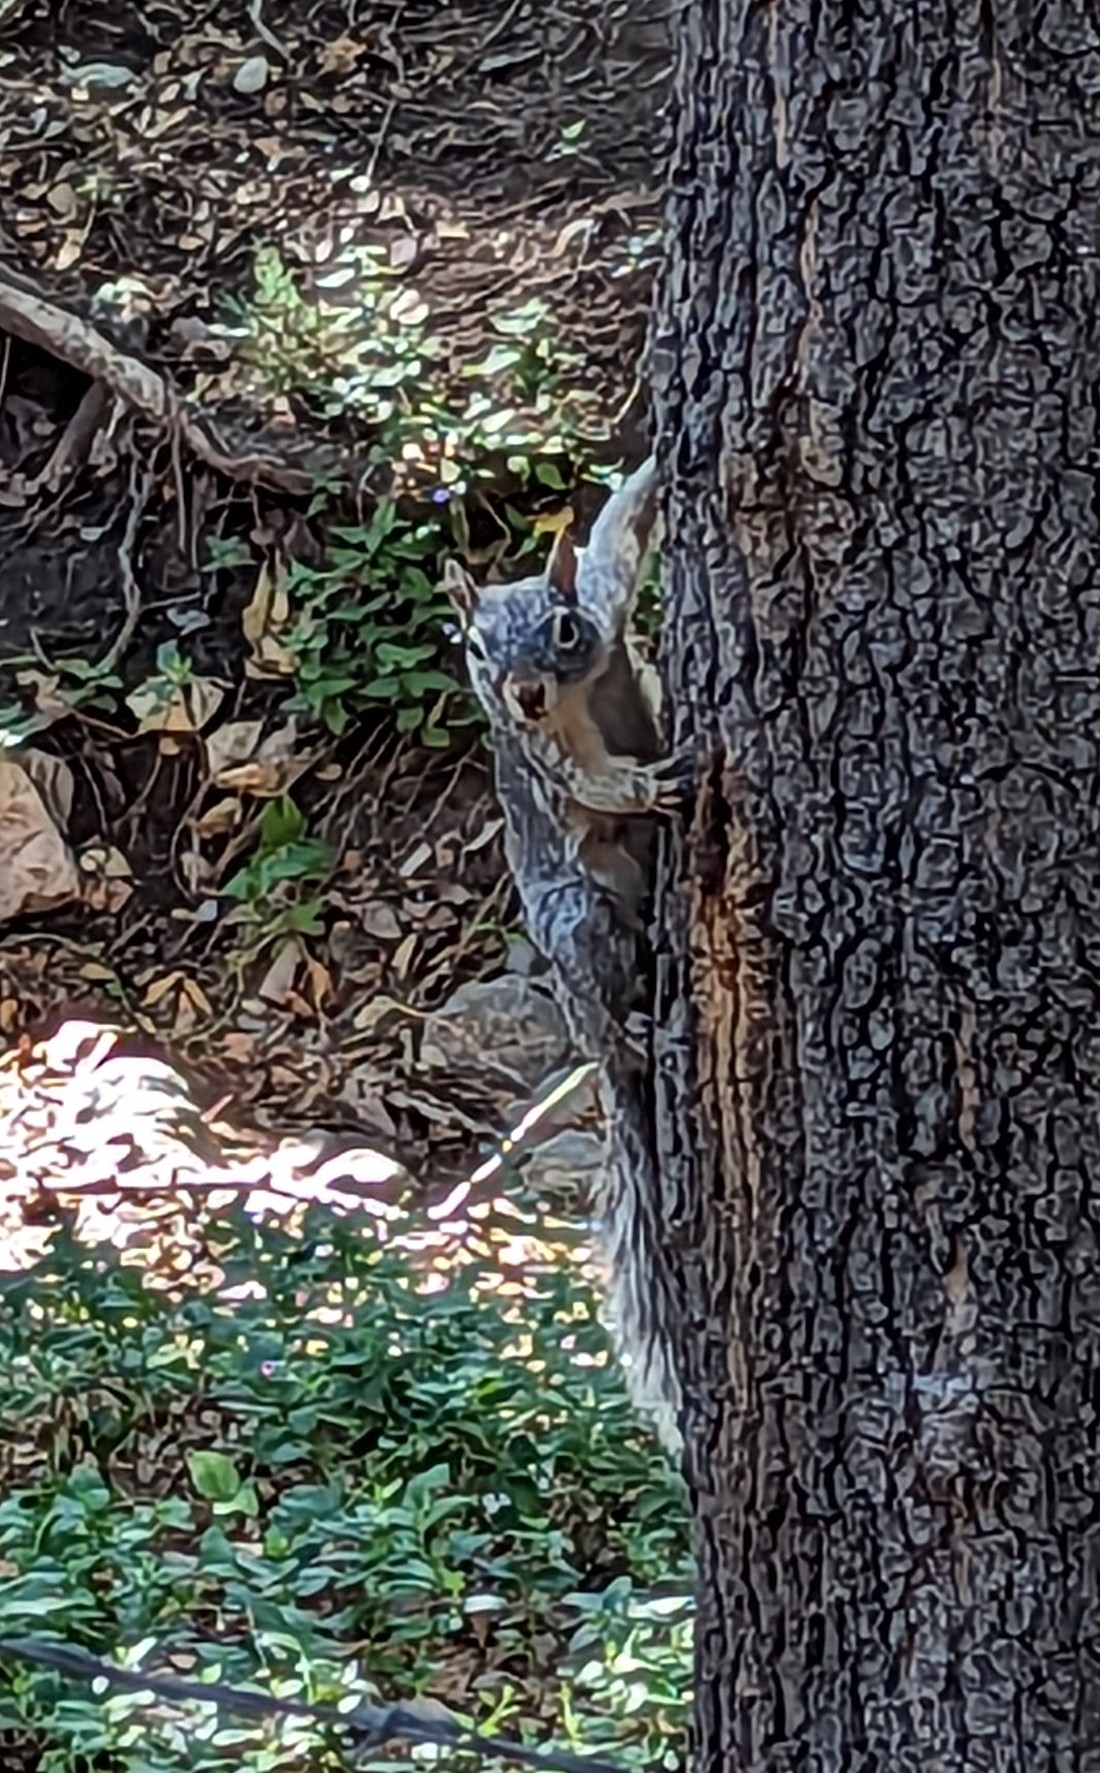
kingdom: Animalia
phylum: Chordata
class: Mammalia
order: Rodentia
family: Sciuridae
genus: Sciurus
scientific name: Sciurus arizonensis
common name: Arizona gray squirrel
